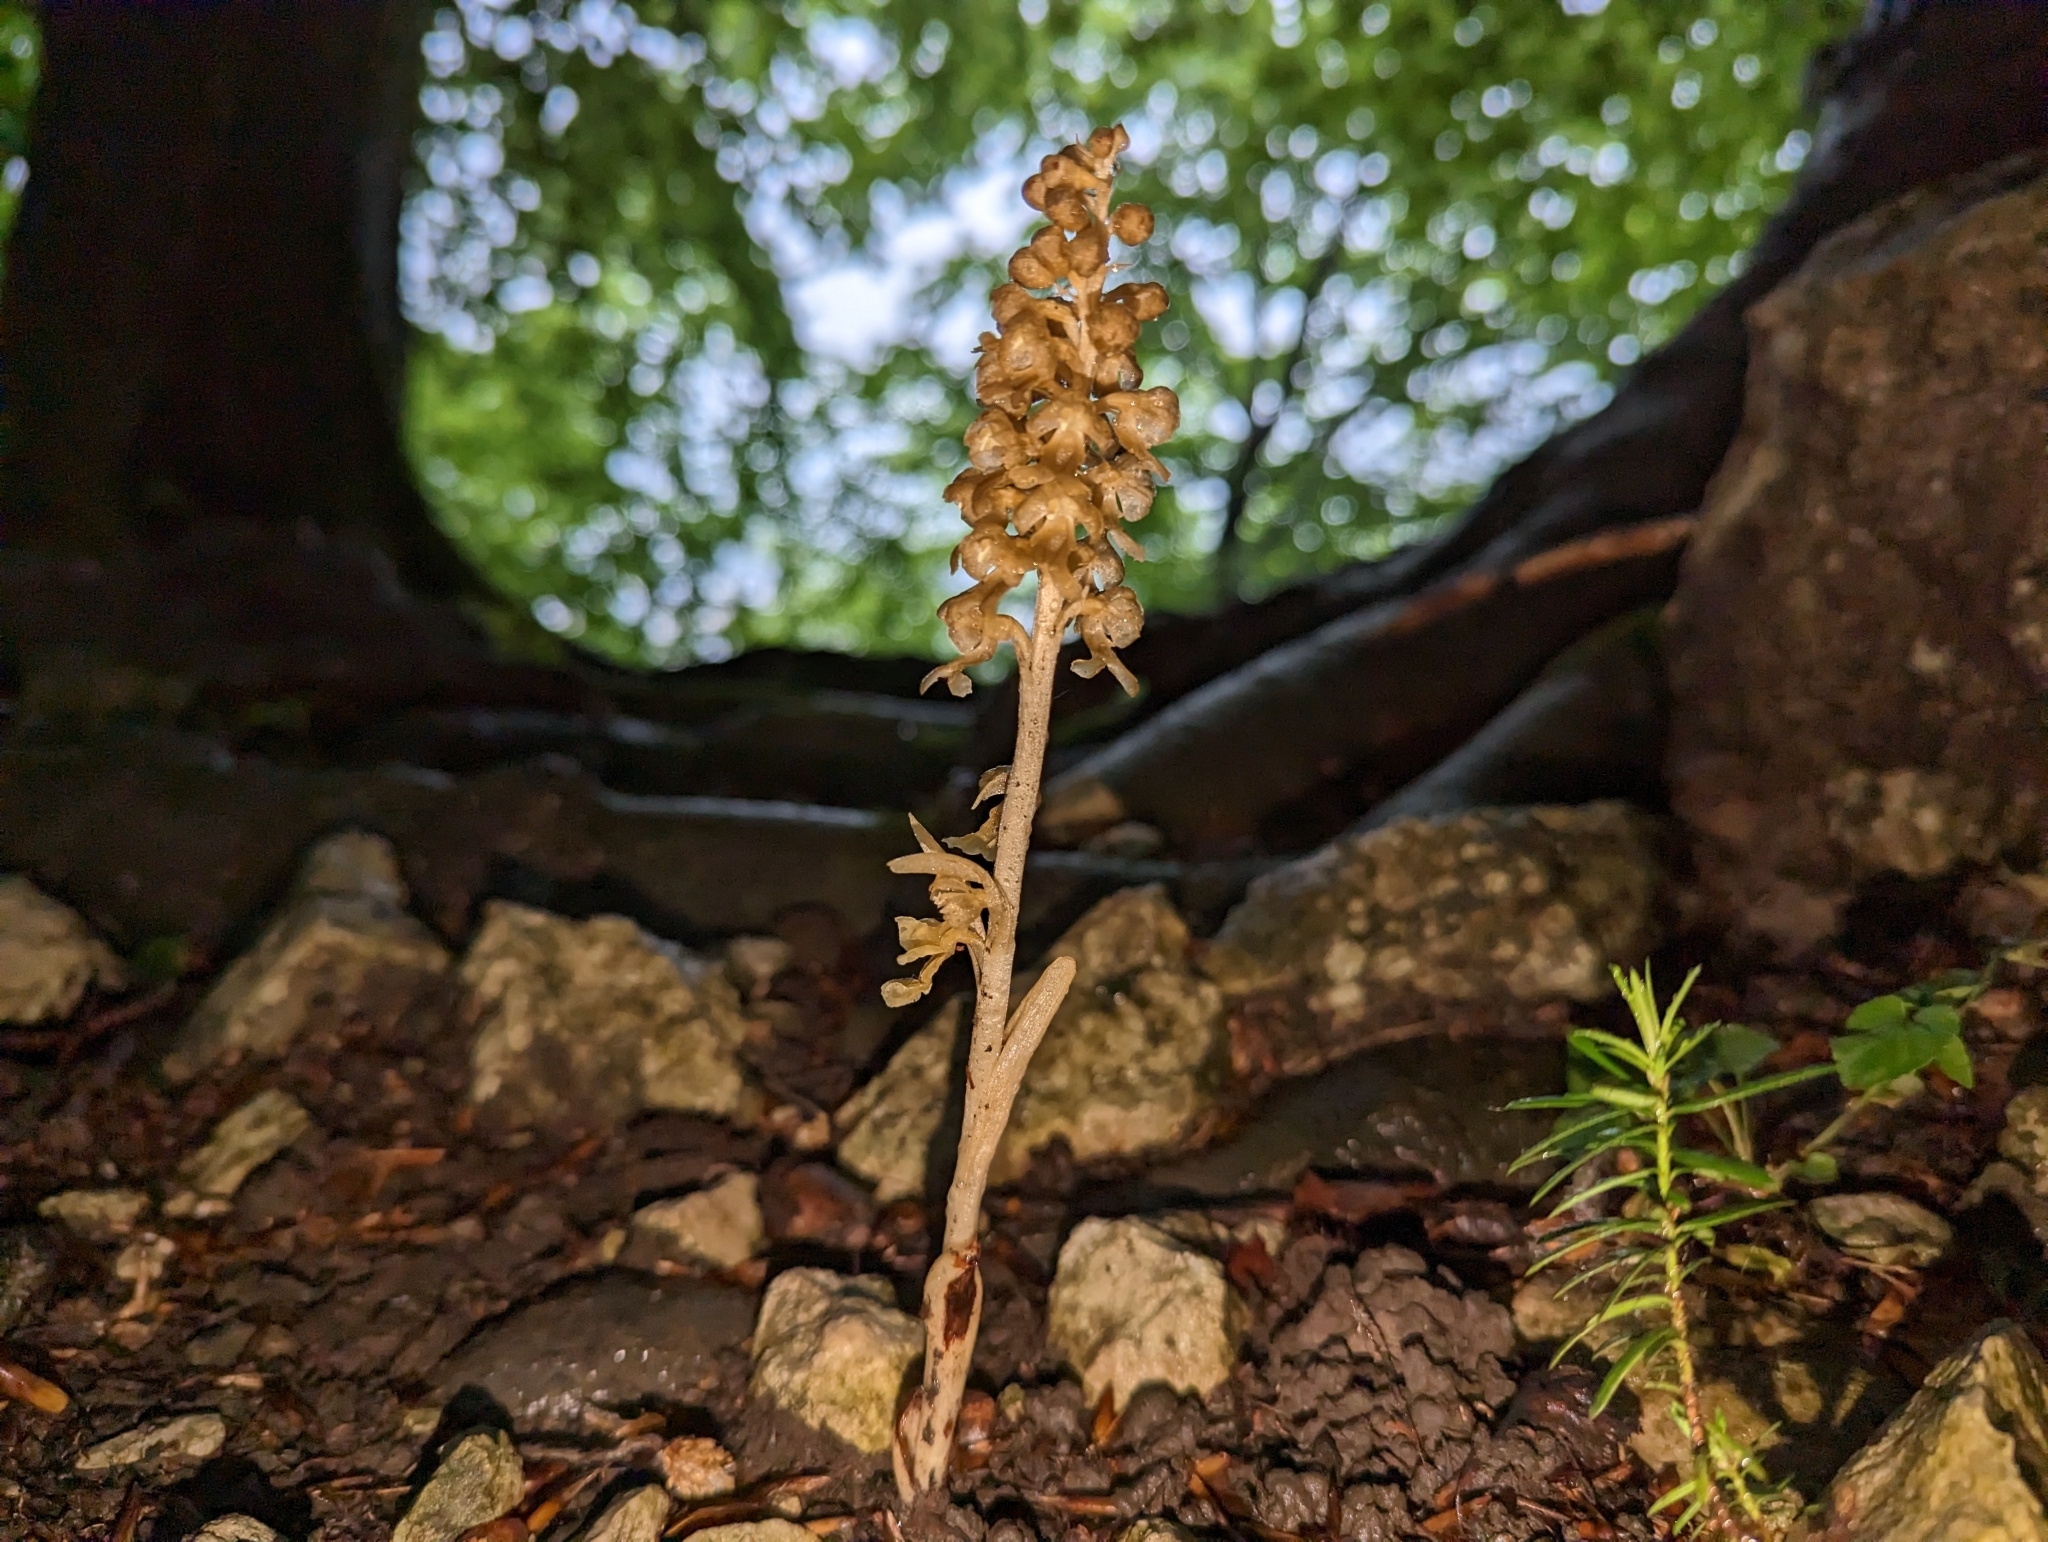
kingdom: Plantae
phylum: Tracheophyta
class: Liliopsida
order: Asparagales
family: Orchidaceae
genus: Neottia
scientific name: Neottia nidus-avis
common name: Bird's-nest orchid
